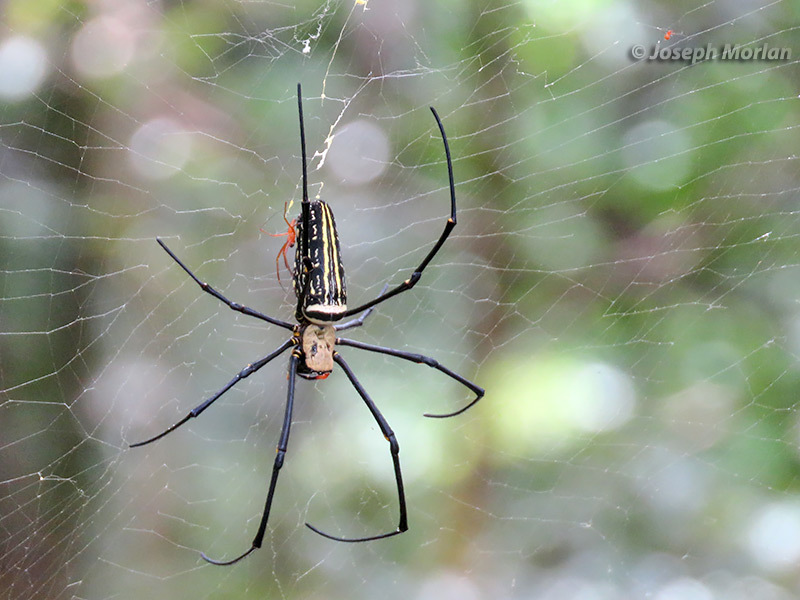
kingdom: Animalia
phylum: Arthropoda
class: Arachnida
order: Araneae
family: Araneidae
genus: Nephila
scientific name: Nephila pilipes
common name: Giant golden orb weaver
